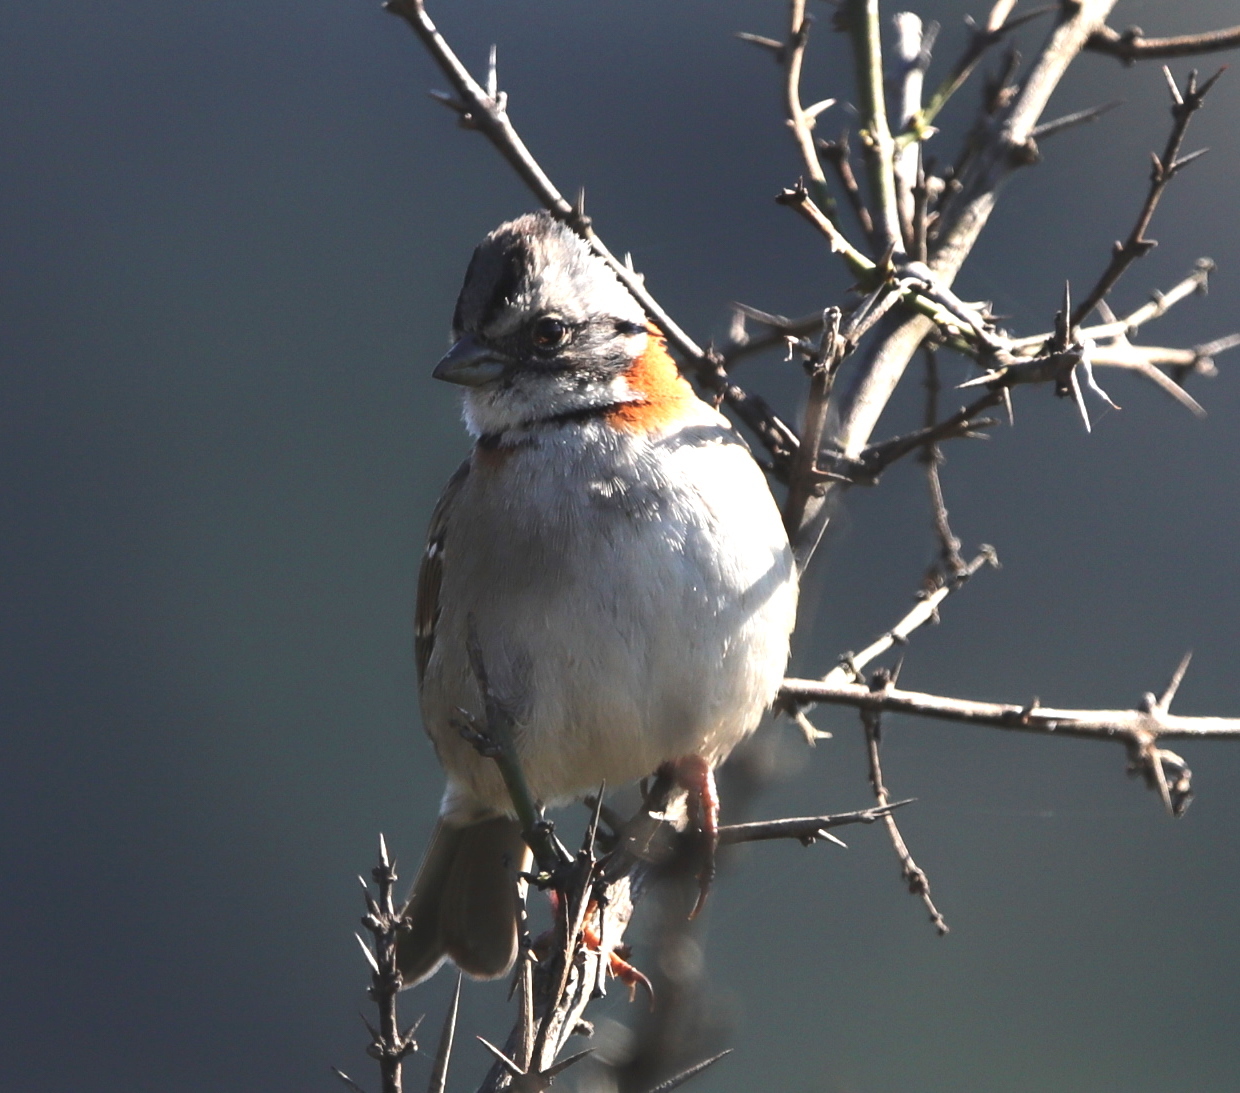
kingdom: Animalia
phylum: Chordata
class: Aves
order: Passeriformes
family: Passerellidae
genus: Zonotrichia
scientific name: Zonotrichia capensis
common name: Rufous-collared sparrow
